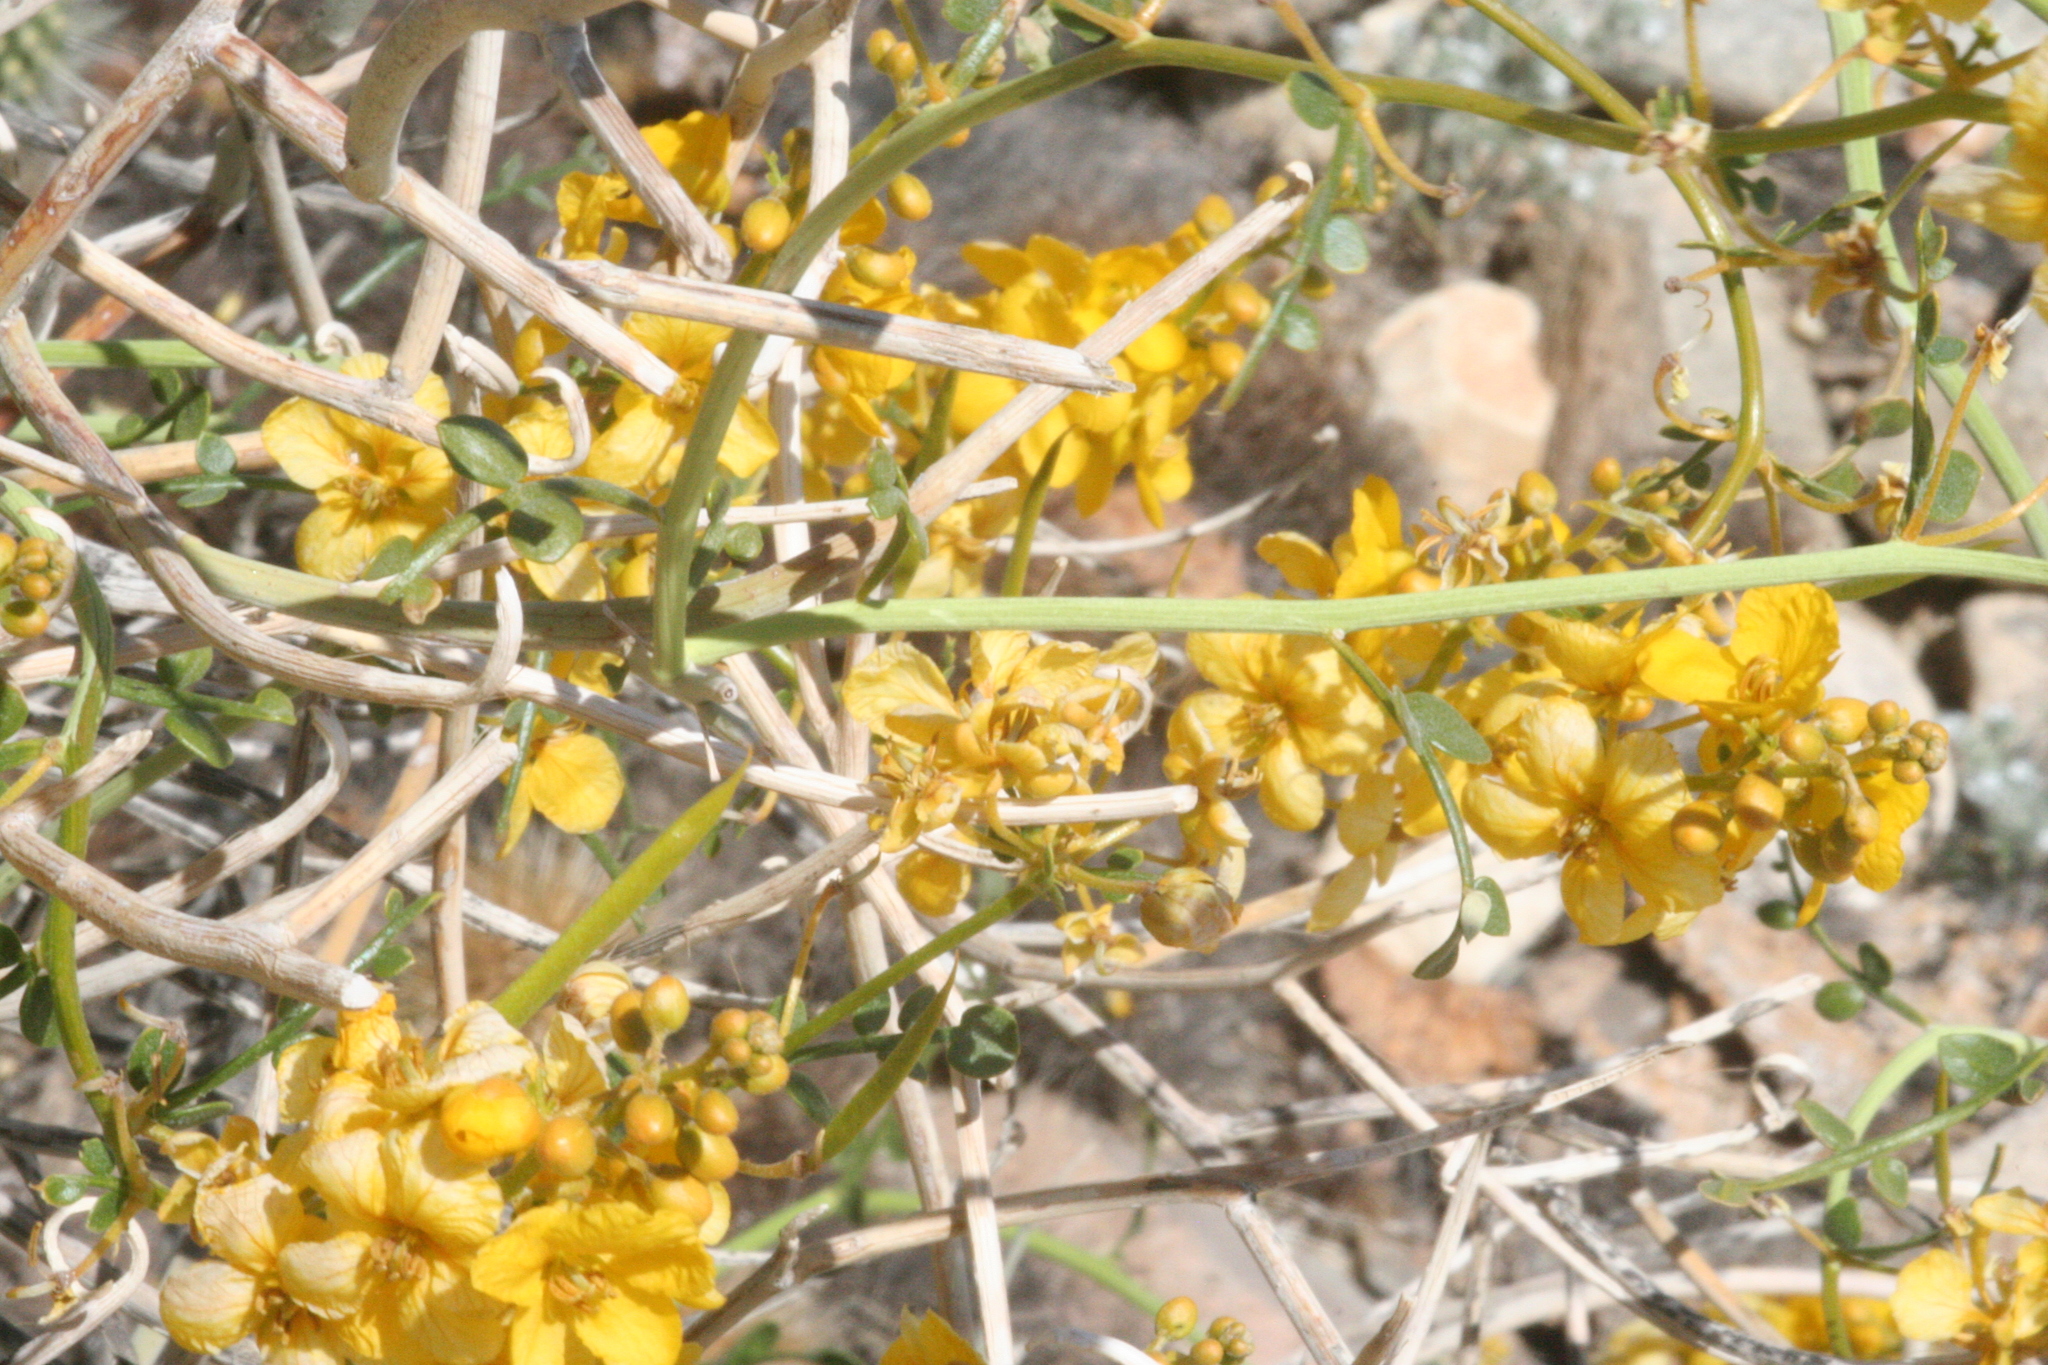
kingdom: Plantae
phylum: Tracheophyta
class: Magnoliopsida
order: Fabales
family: Fabaceae
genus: Senna
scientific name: Senna armata
